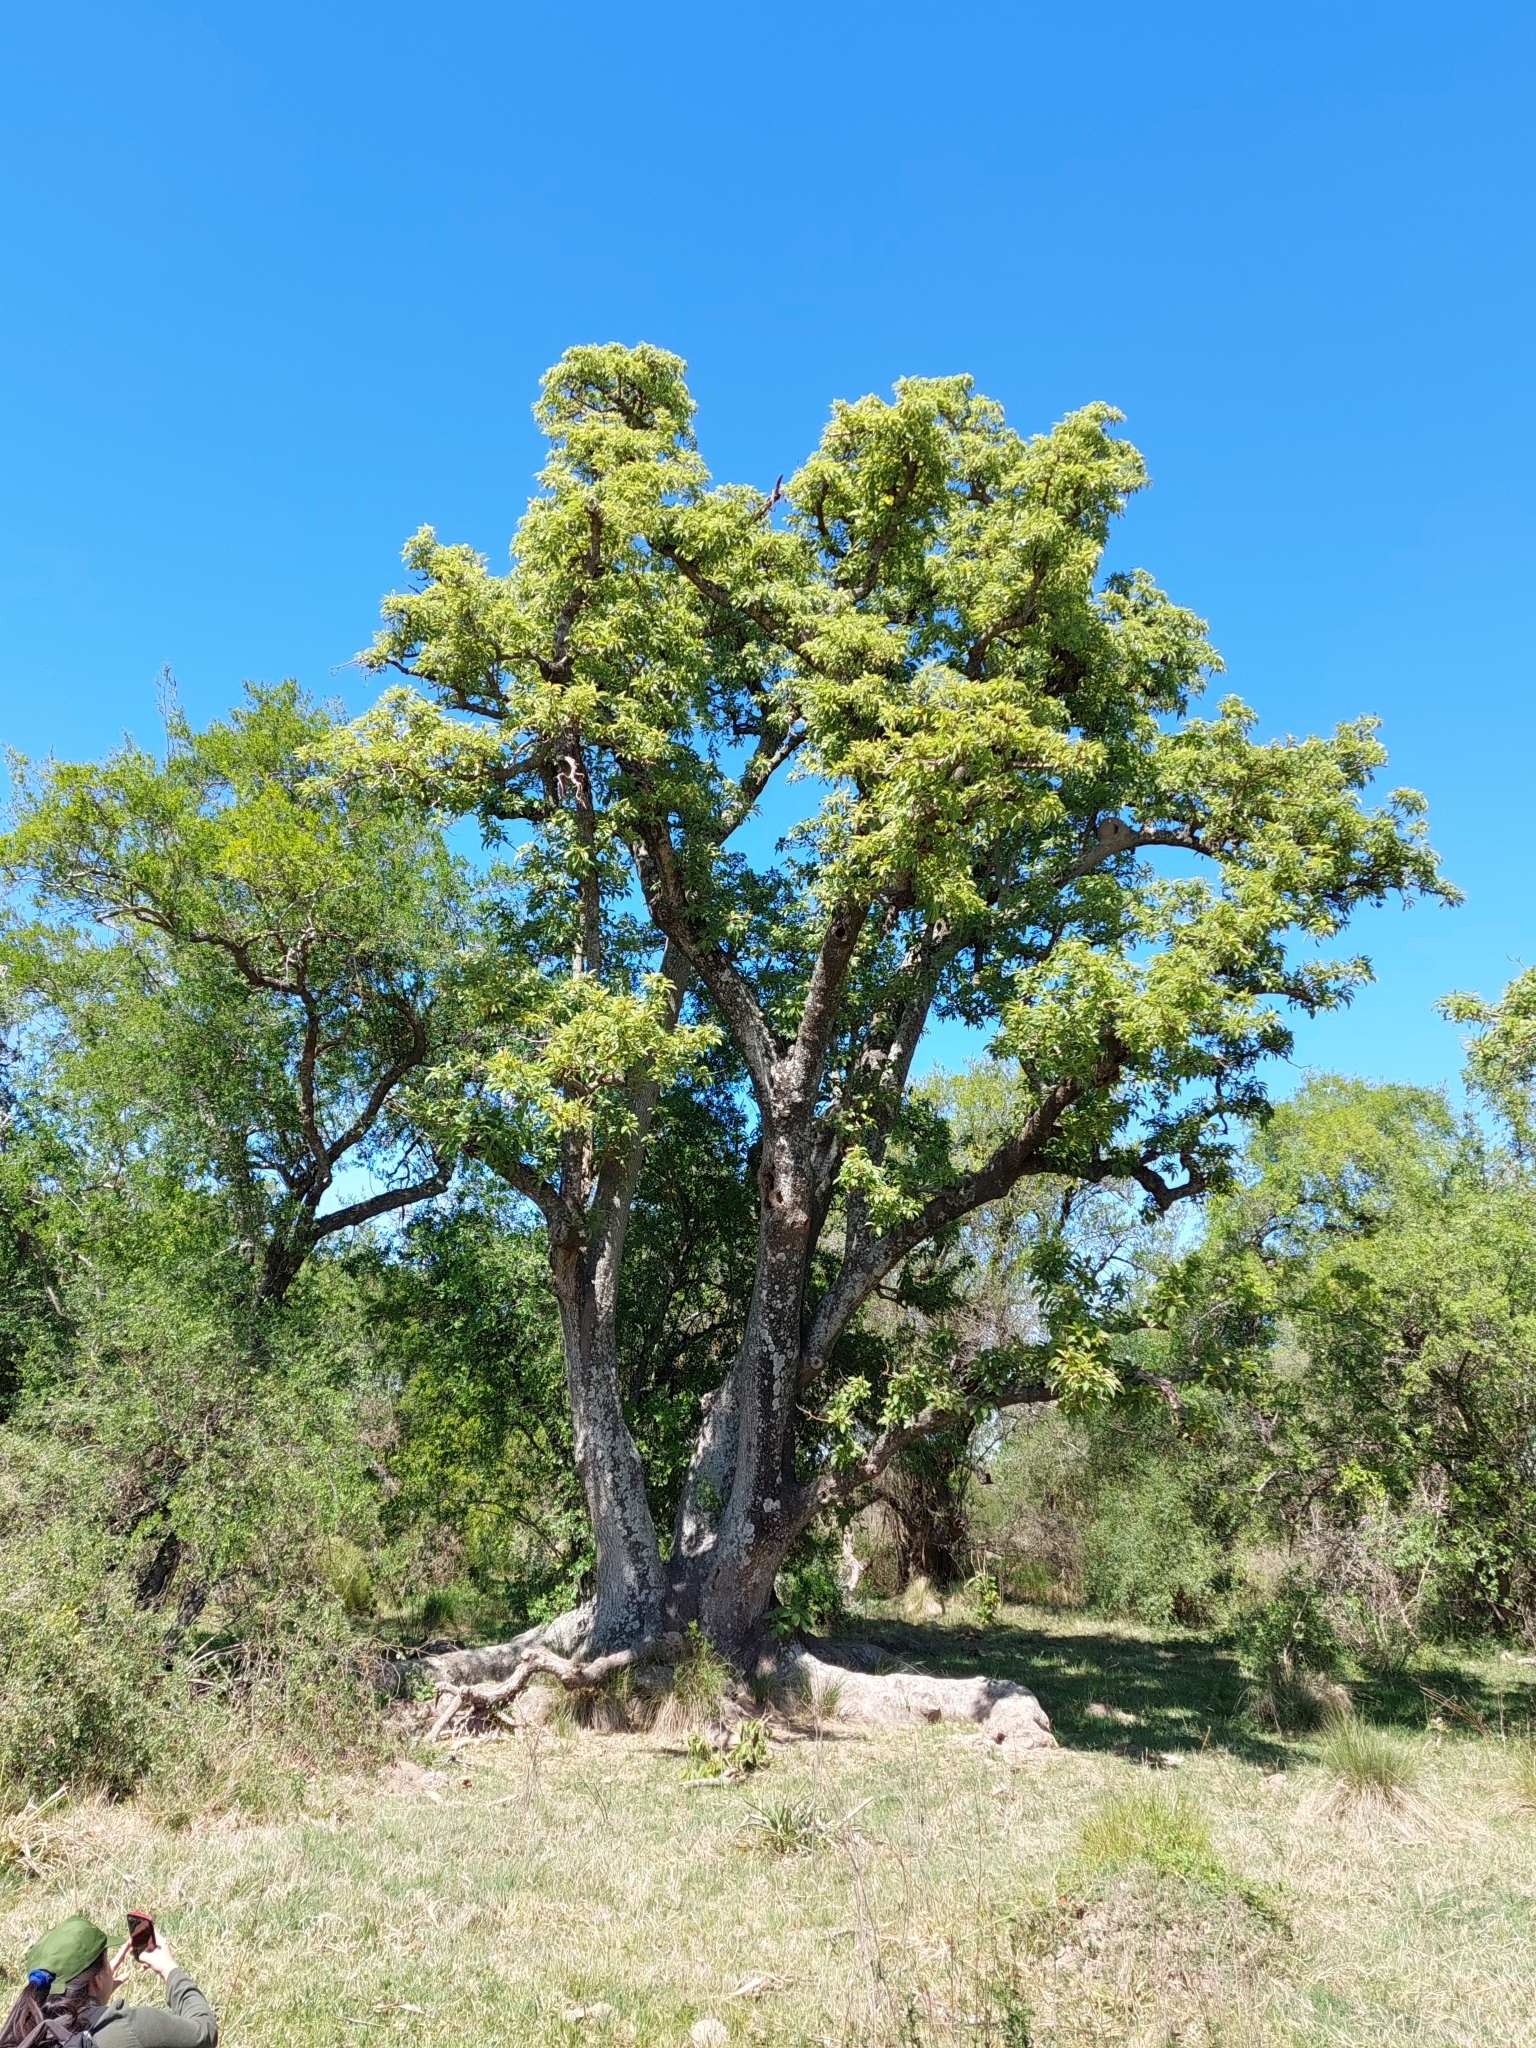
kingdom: Plantae
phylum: Tracheophyta
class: Magnoliopsida
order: Caryophyllales
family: Phytolaccaceae
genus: Phytolacca
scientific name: Phytolacca dioica
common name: Pokeweed
